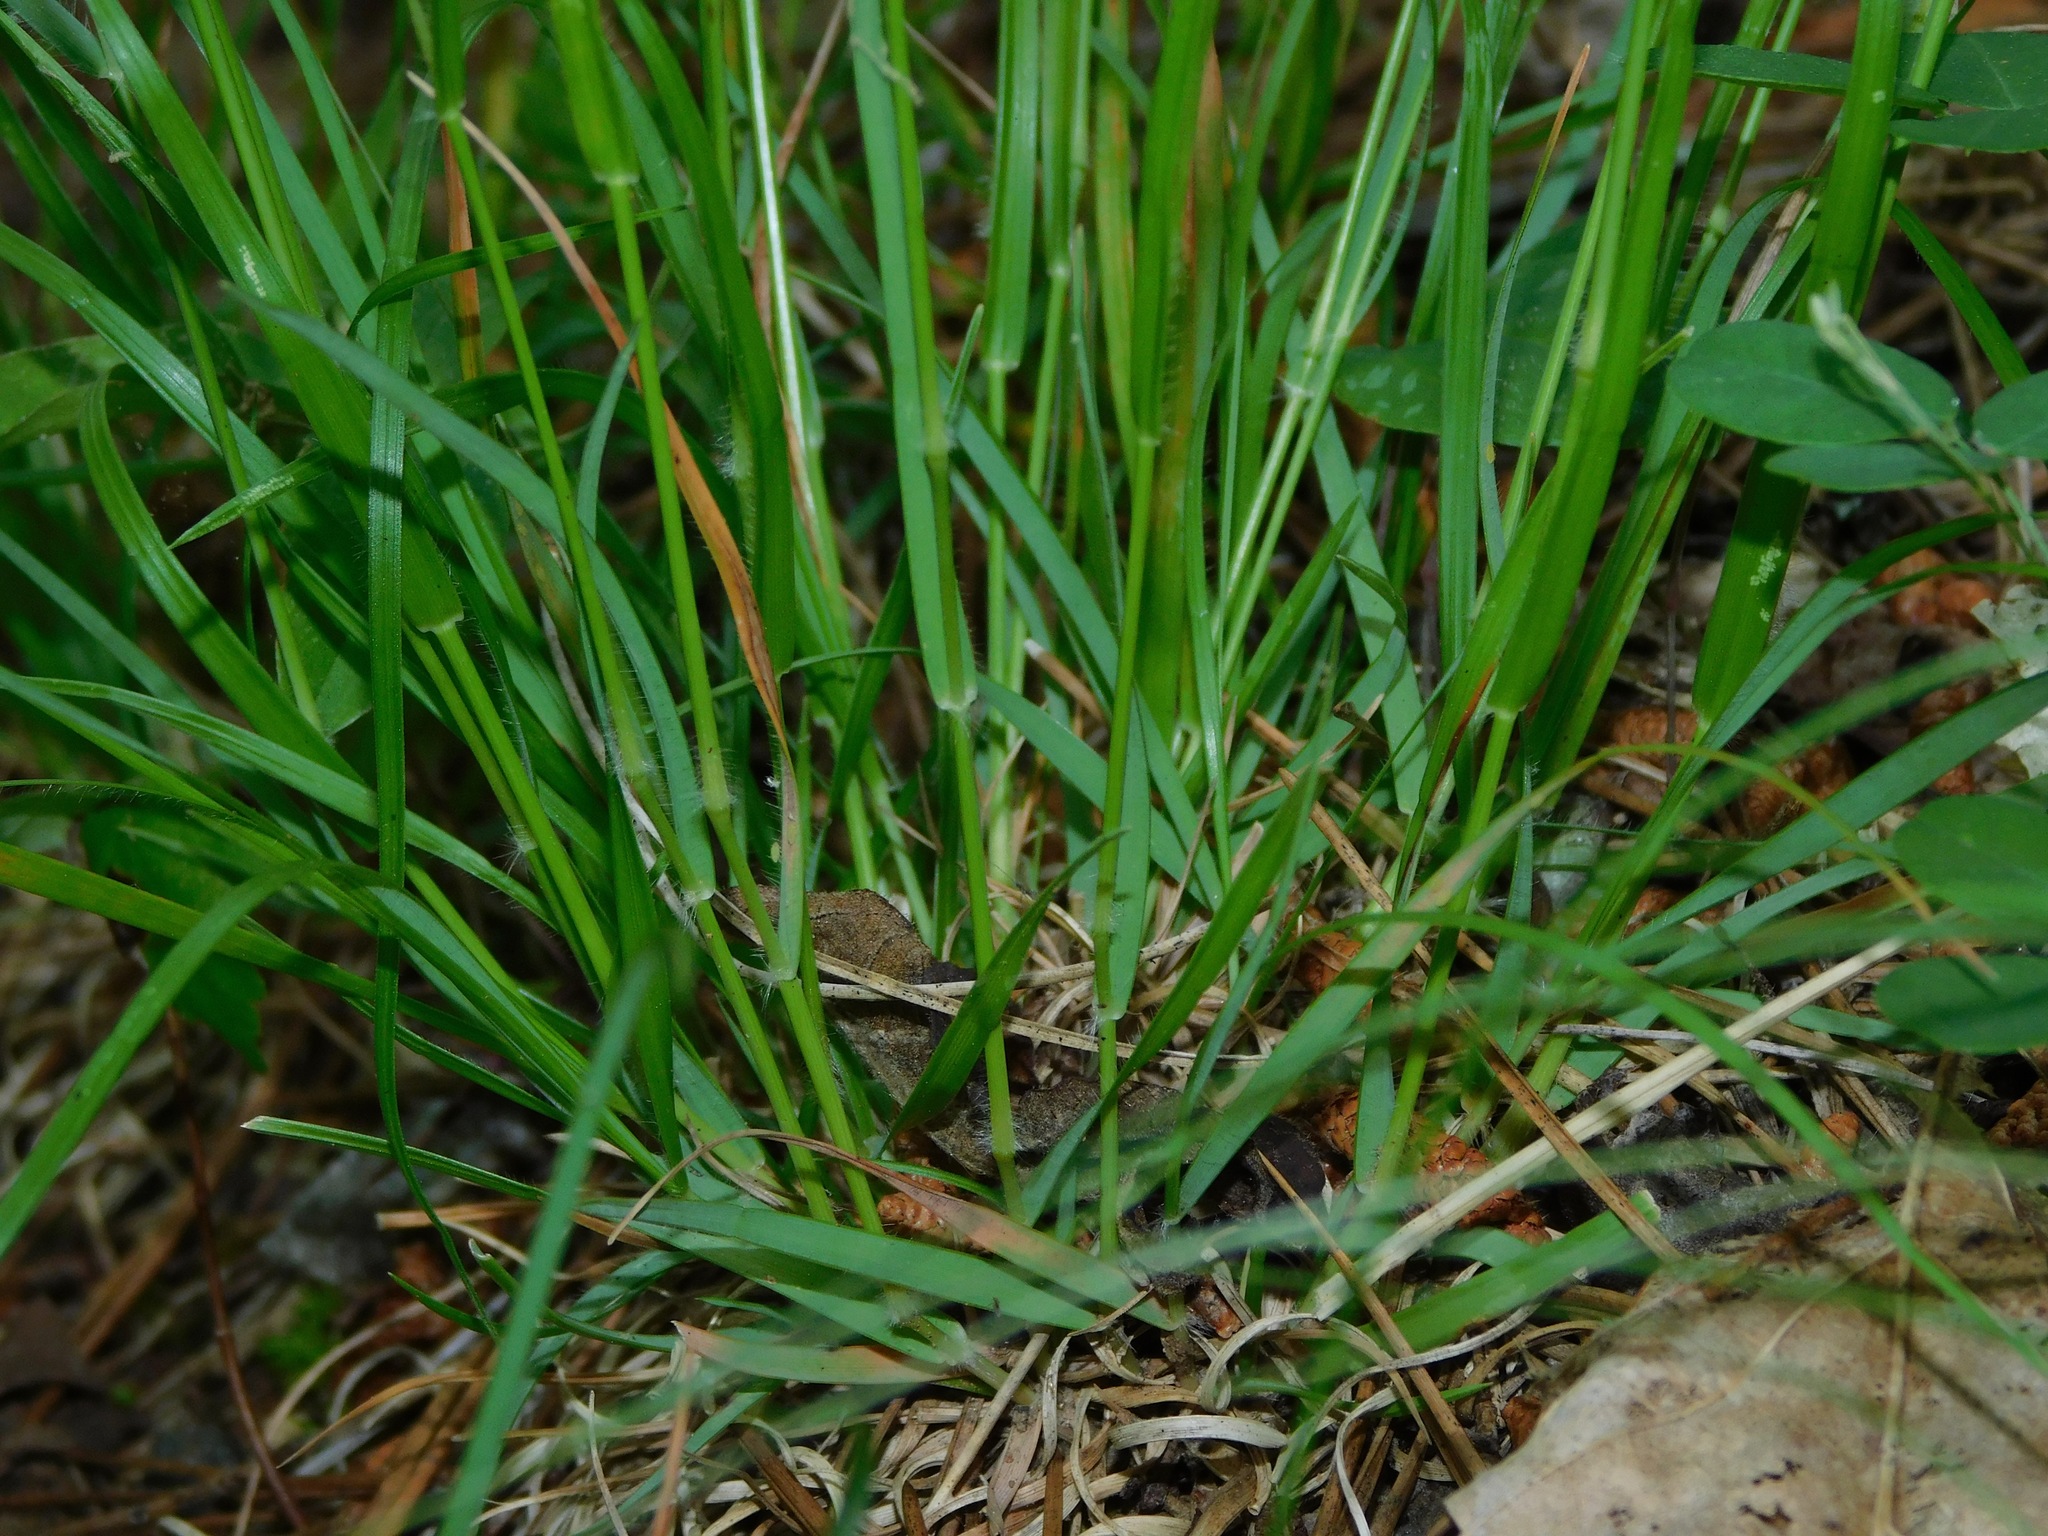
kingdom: Plantae
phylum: Tracheophyta
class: Liliopsida
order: Poales
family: Poaceae
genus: Danthonia
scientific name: Danthonia compressa
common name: Flat-stem oat grass
